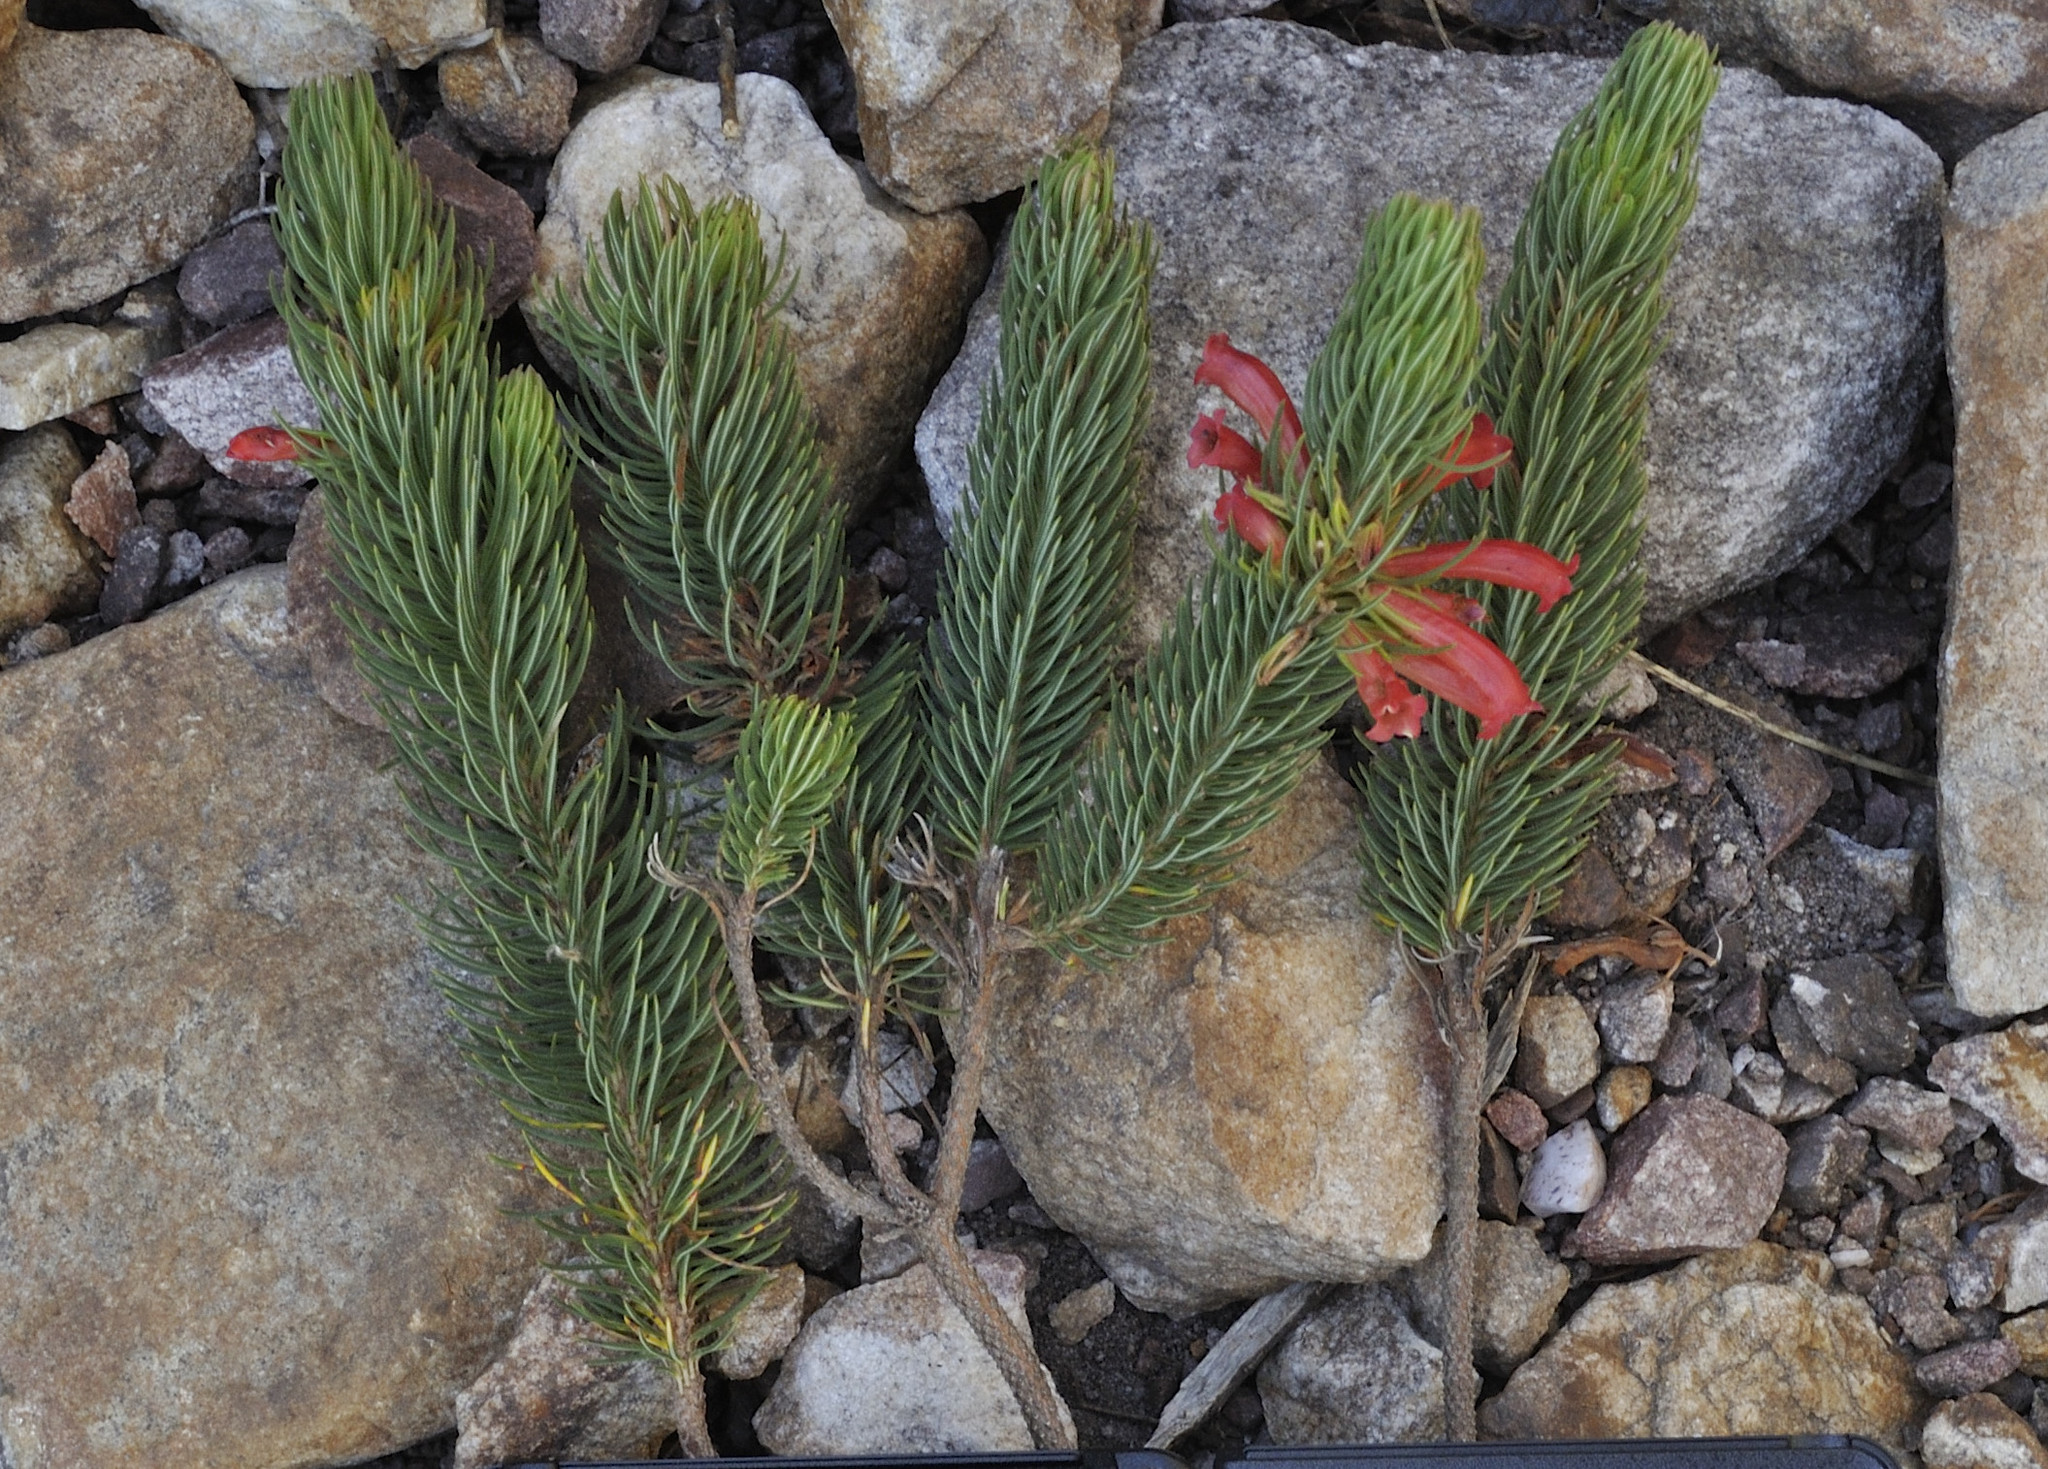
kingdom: Plantae
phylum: Tracheophyta
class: Magnoliopsida
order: Ericales
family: Ericaceae
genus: Erica
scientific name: Erica viscaria
